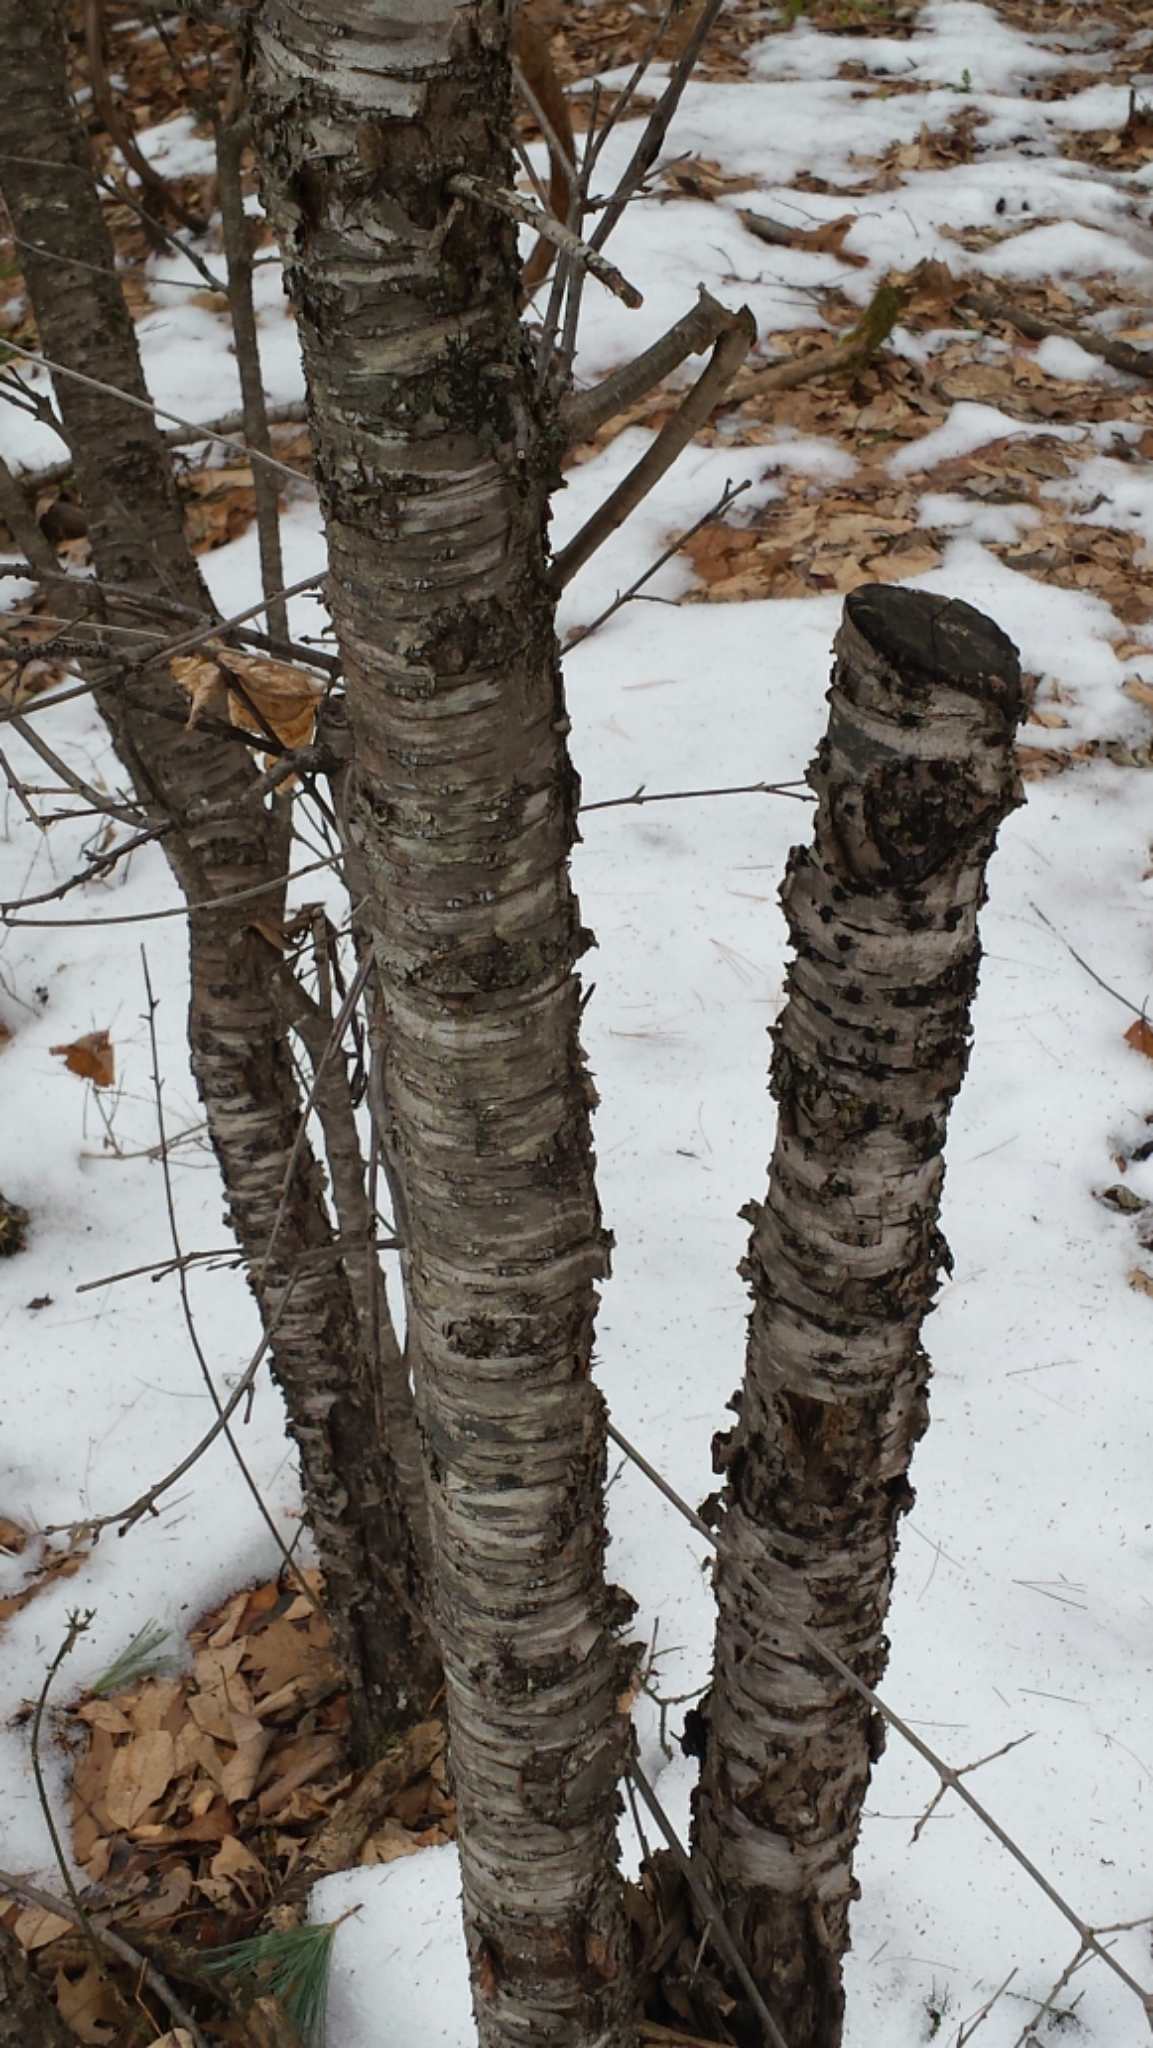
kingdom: Plantae
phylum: Tracheophyta
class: Magnoliopsida
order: Rosales
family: Rhamnaceae
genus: Rhamnus
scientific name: Rhamnus cathartica
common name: Common buckthorn
